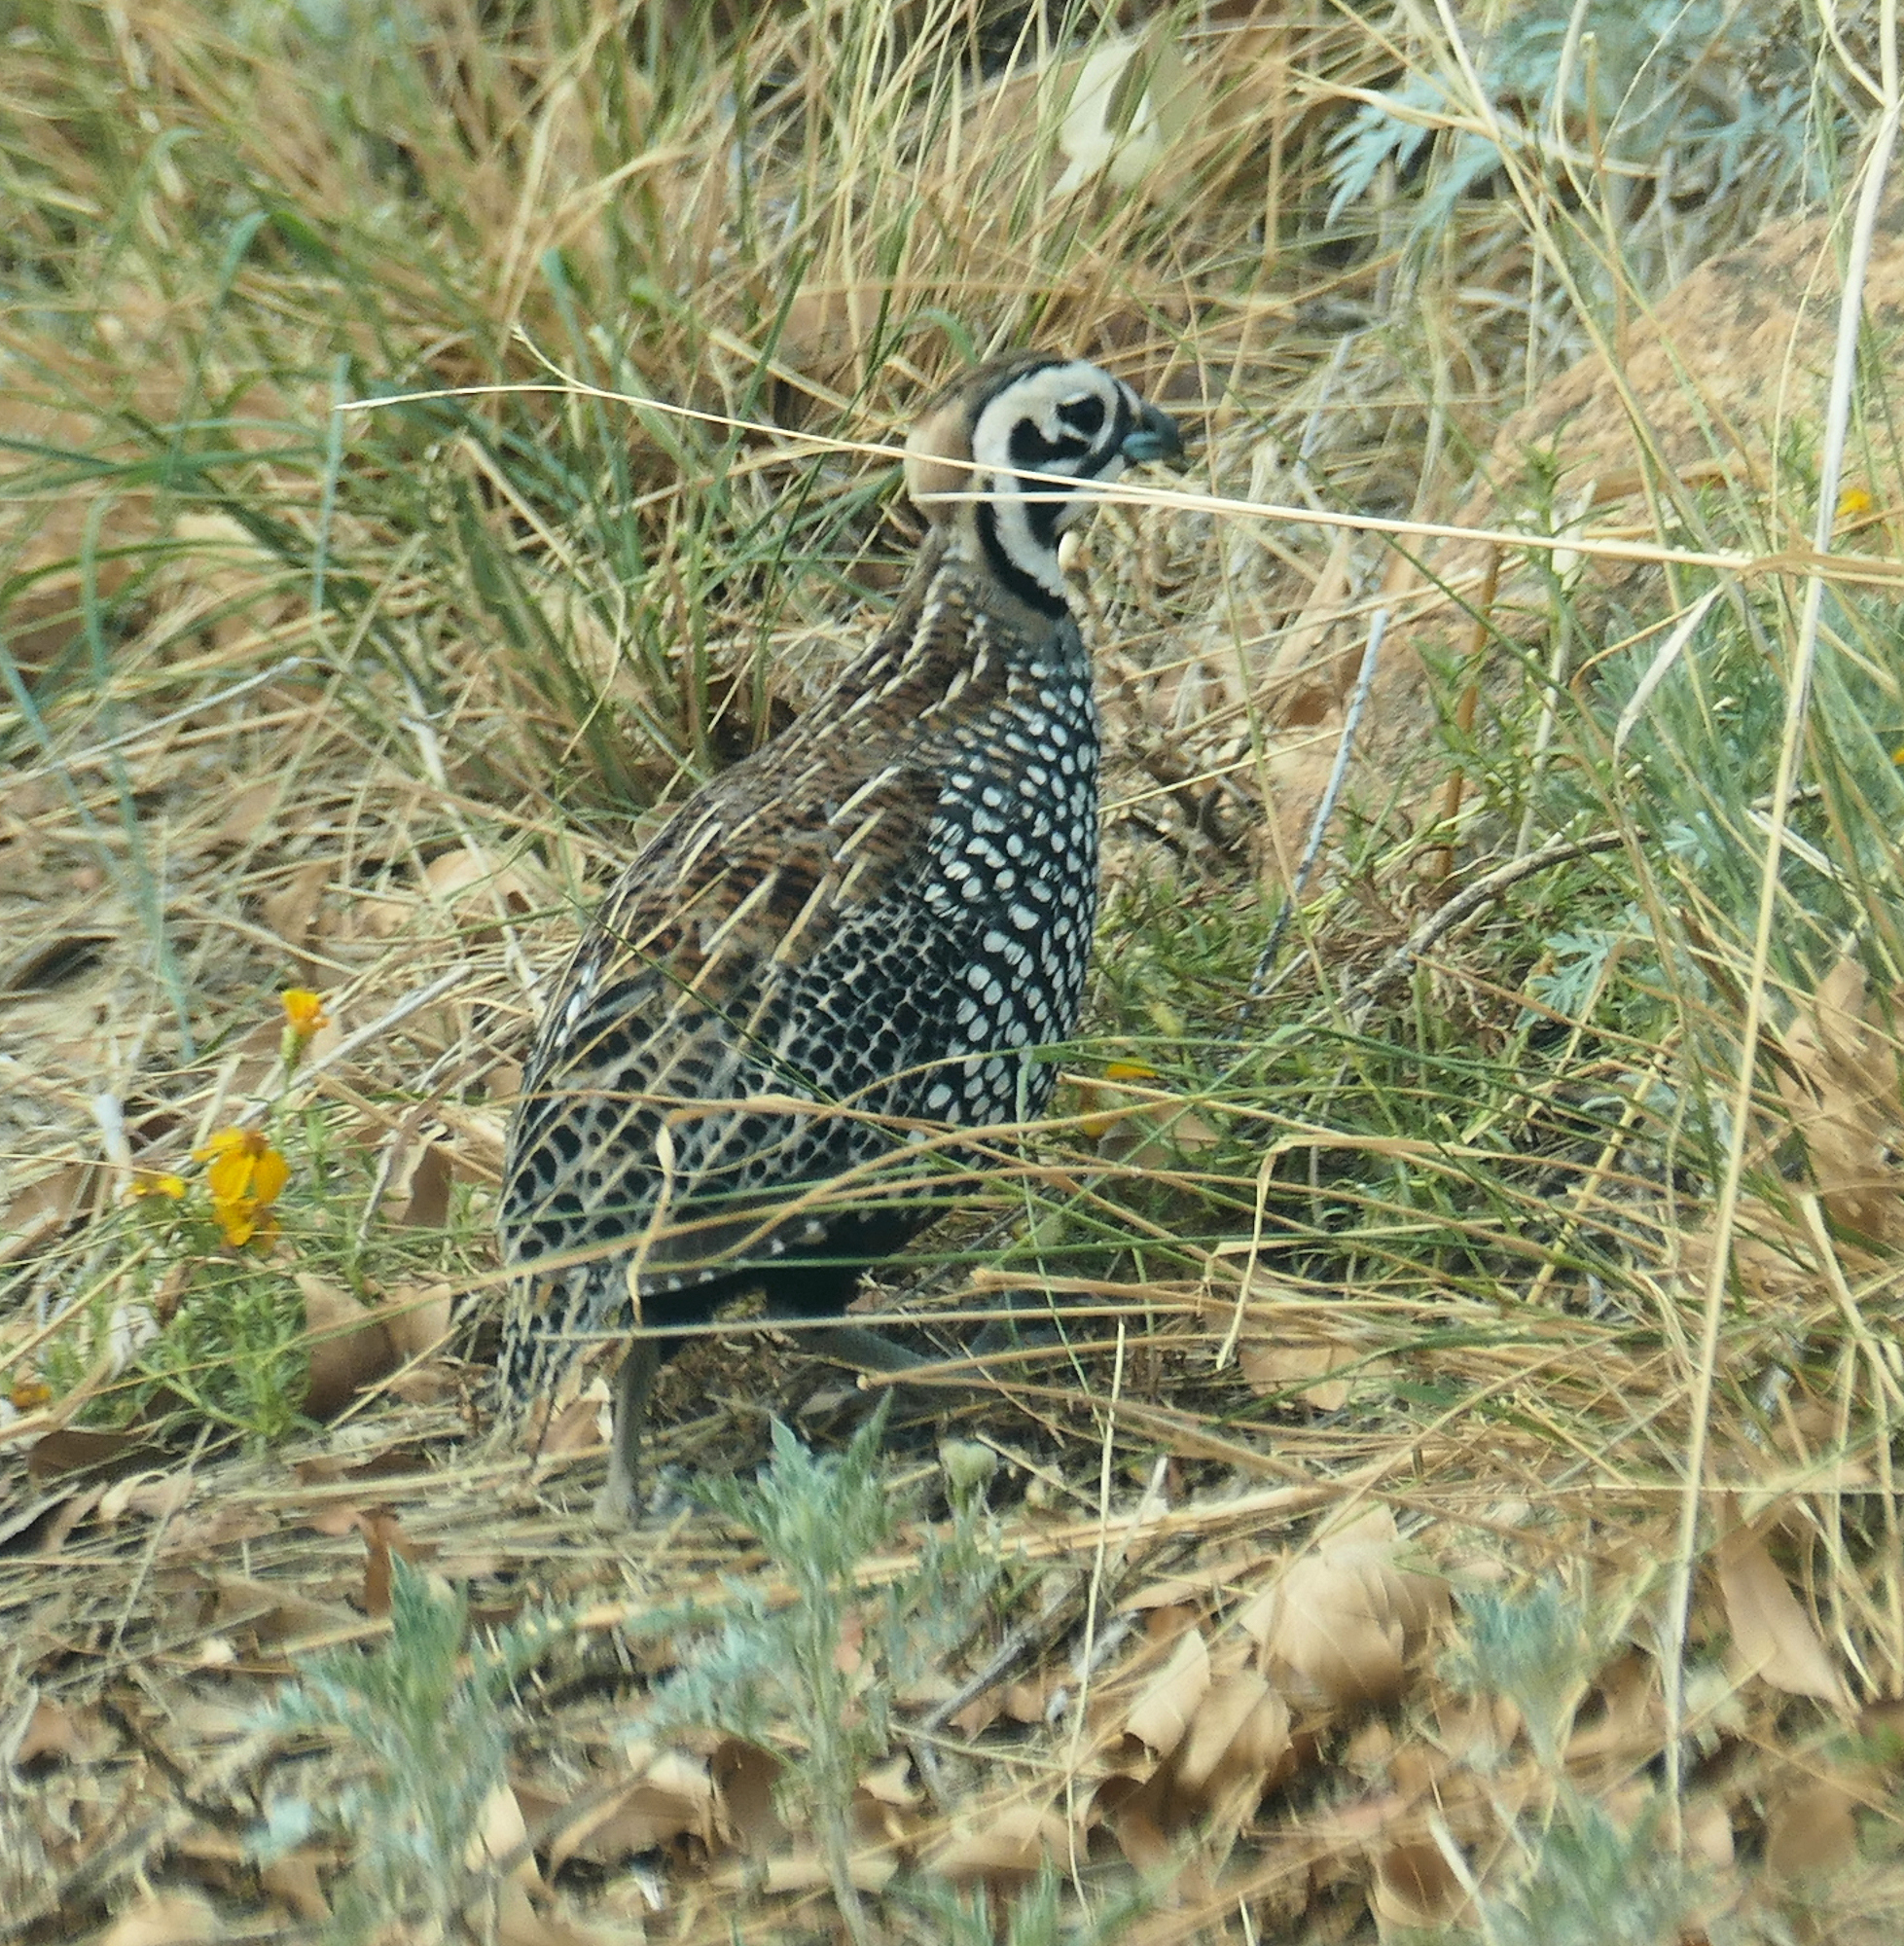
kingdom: Animalia
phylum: Chordata
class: Aves
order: Galliformes
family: Odontophoridae
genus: Cyrtonyx
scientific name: Cyrtonyx montezumae
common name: Montezuma quail
